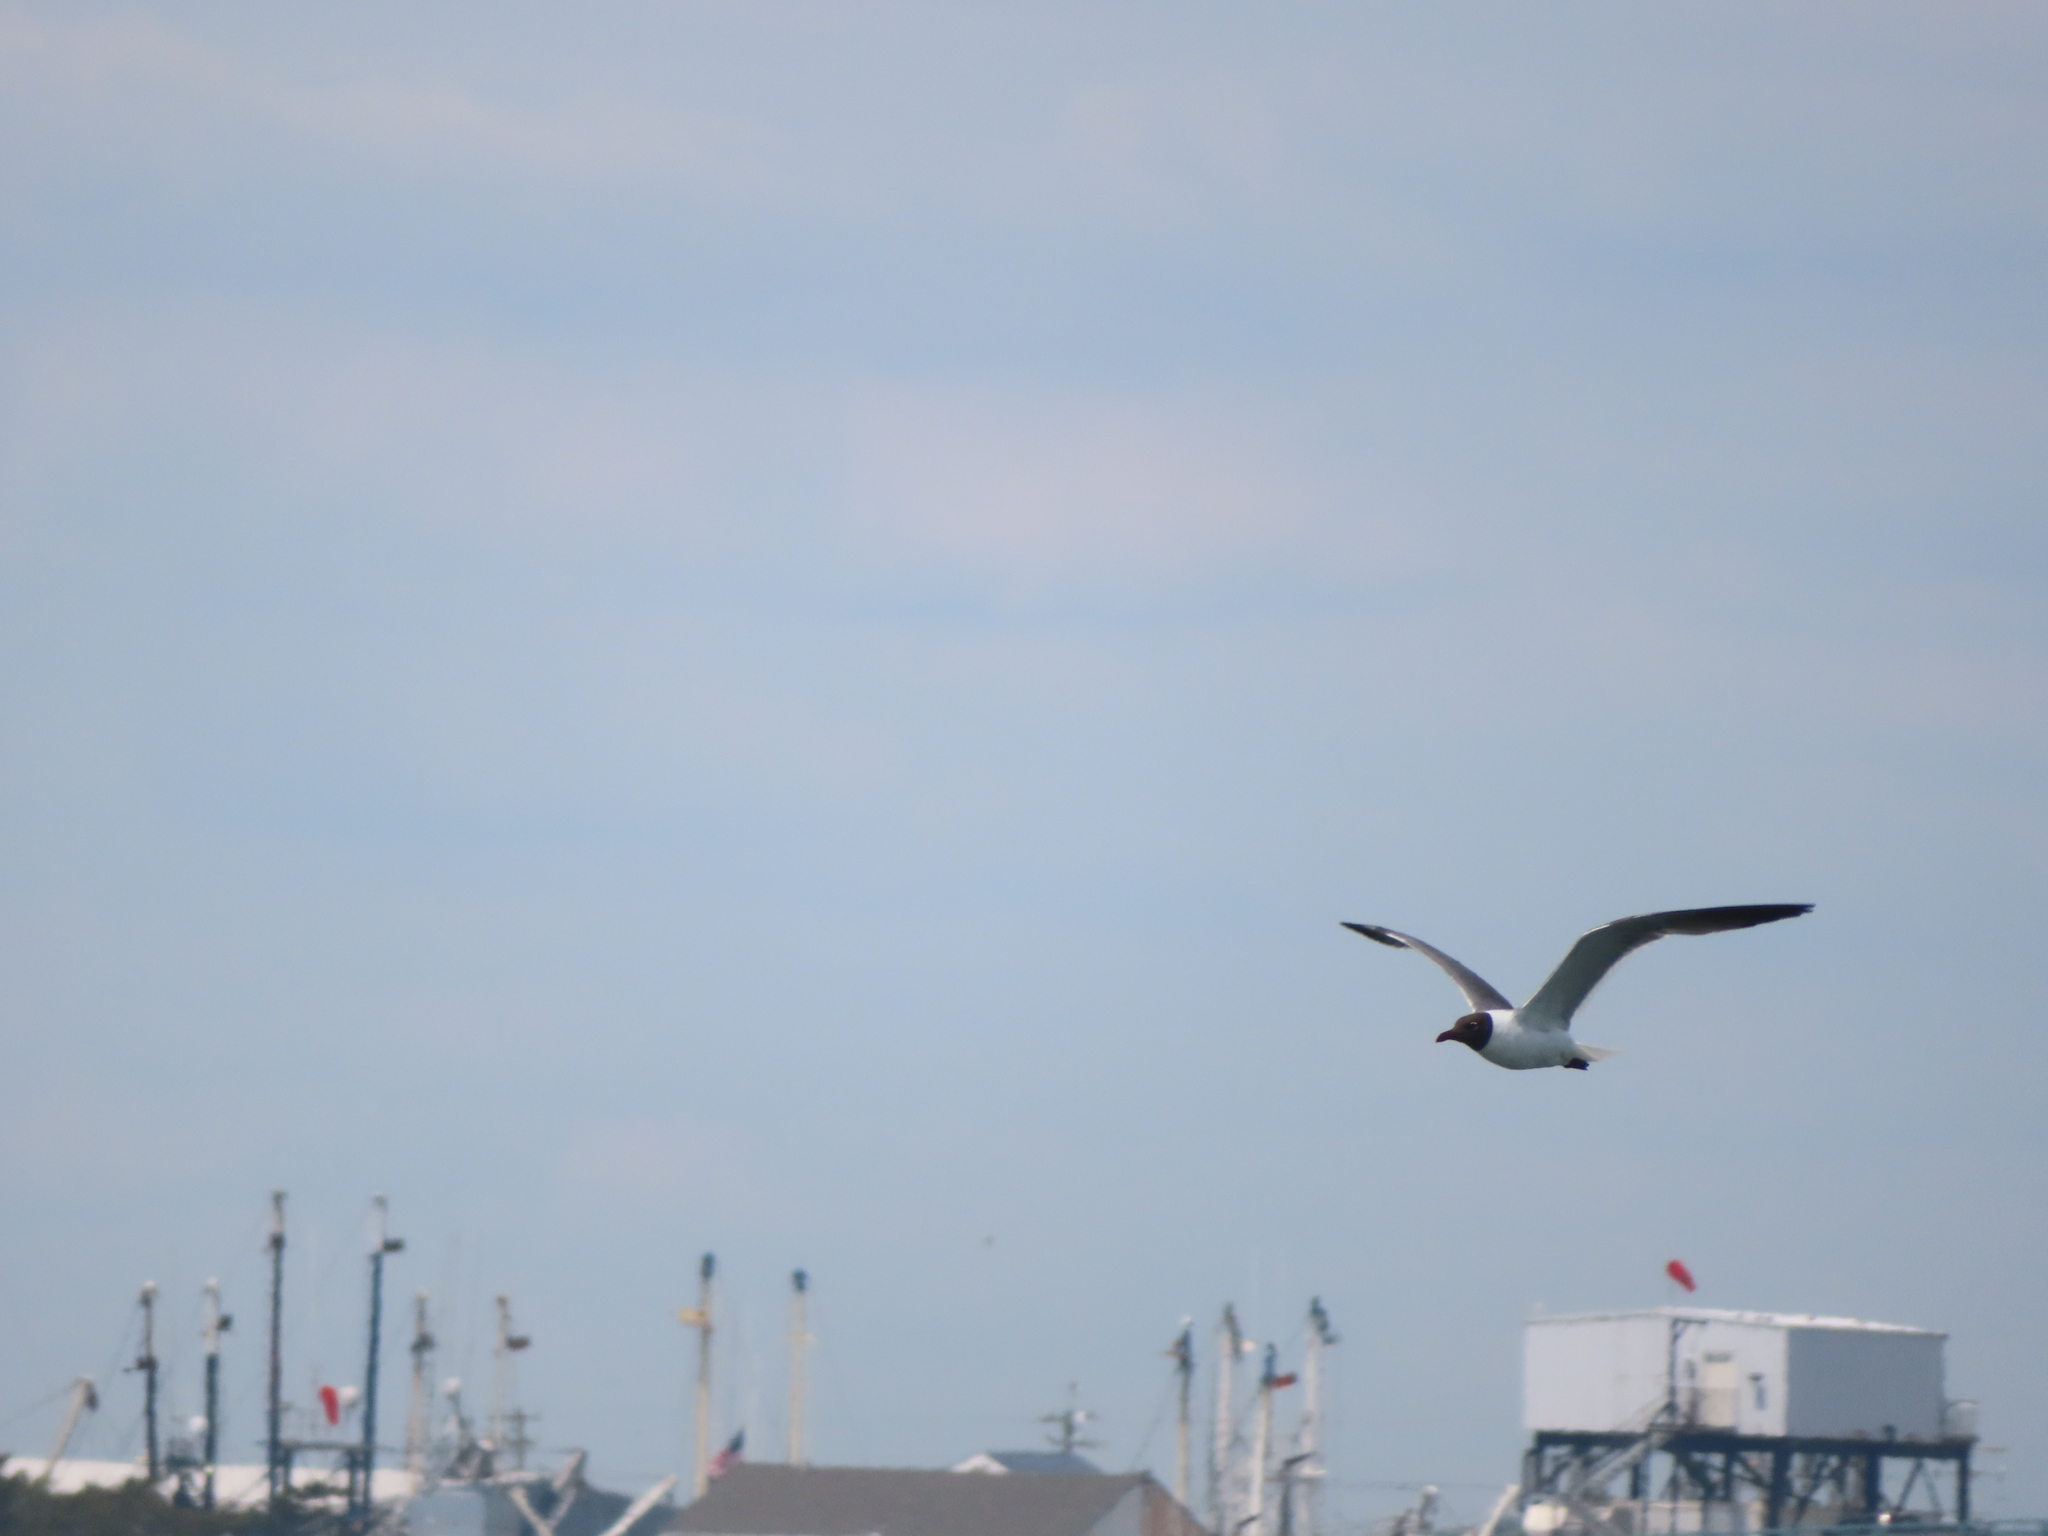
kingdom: Animalia
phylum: Chordata
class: Aves
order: Charadriiformes
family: Laridae
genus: Leucophaeus
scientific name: Leucophaeus atricilla
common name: Laughing gull
